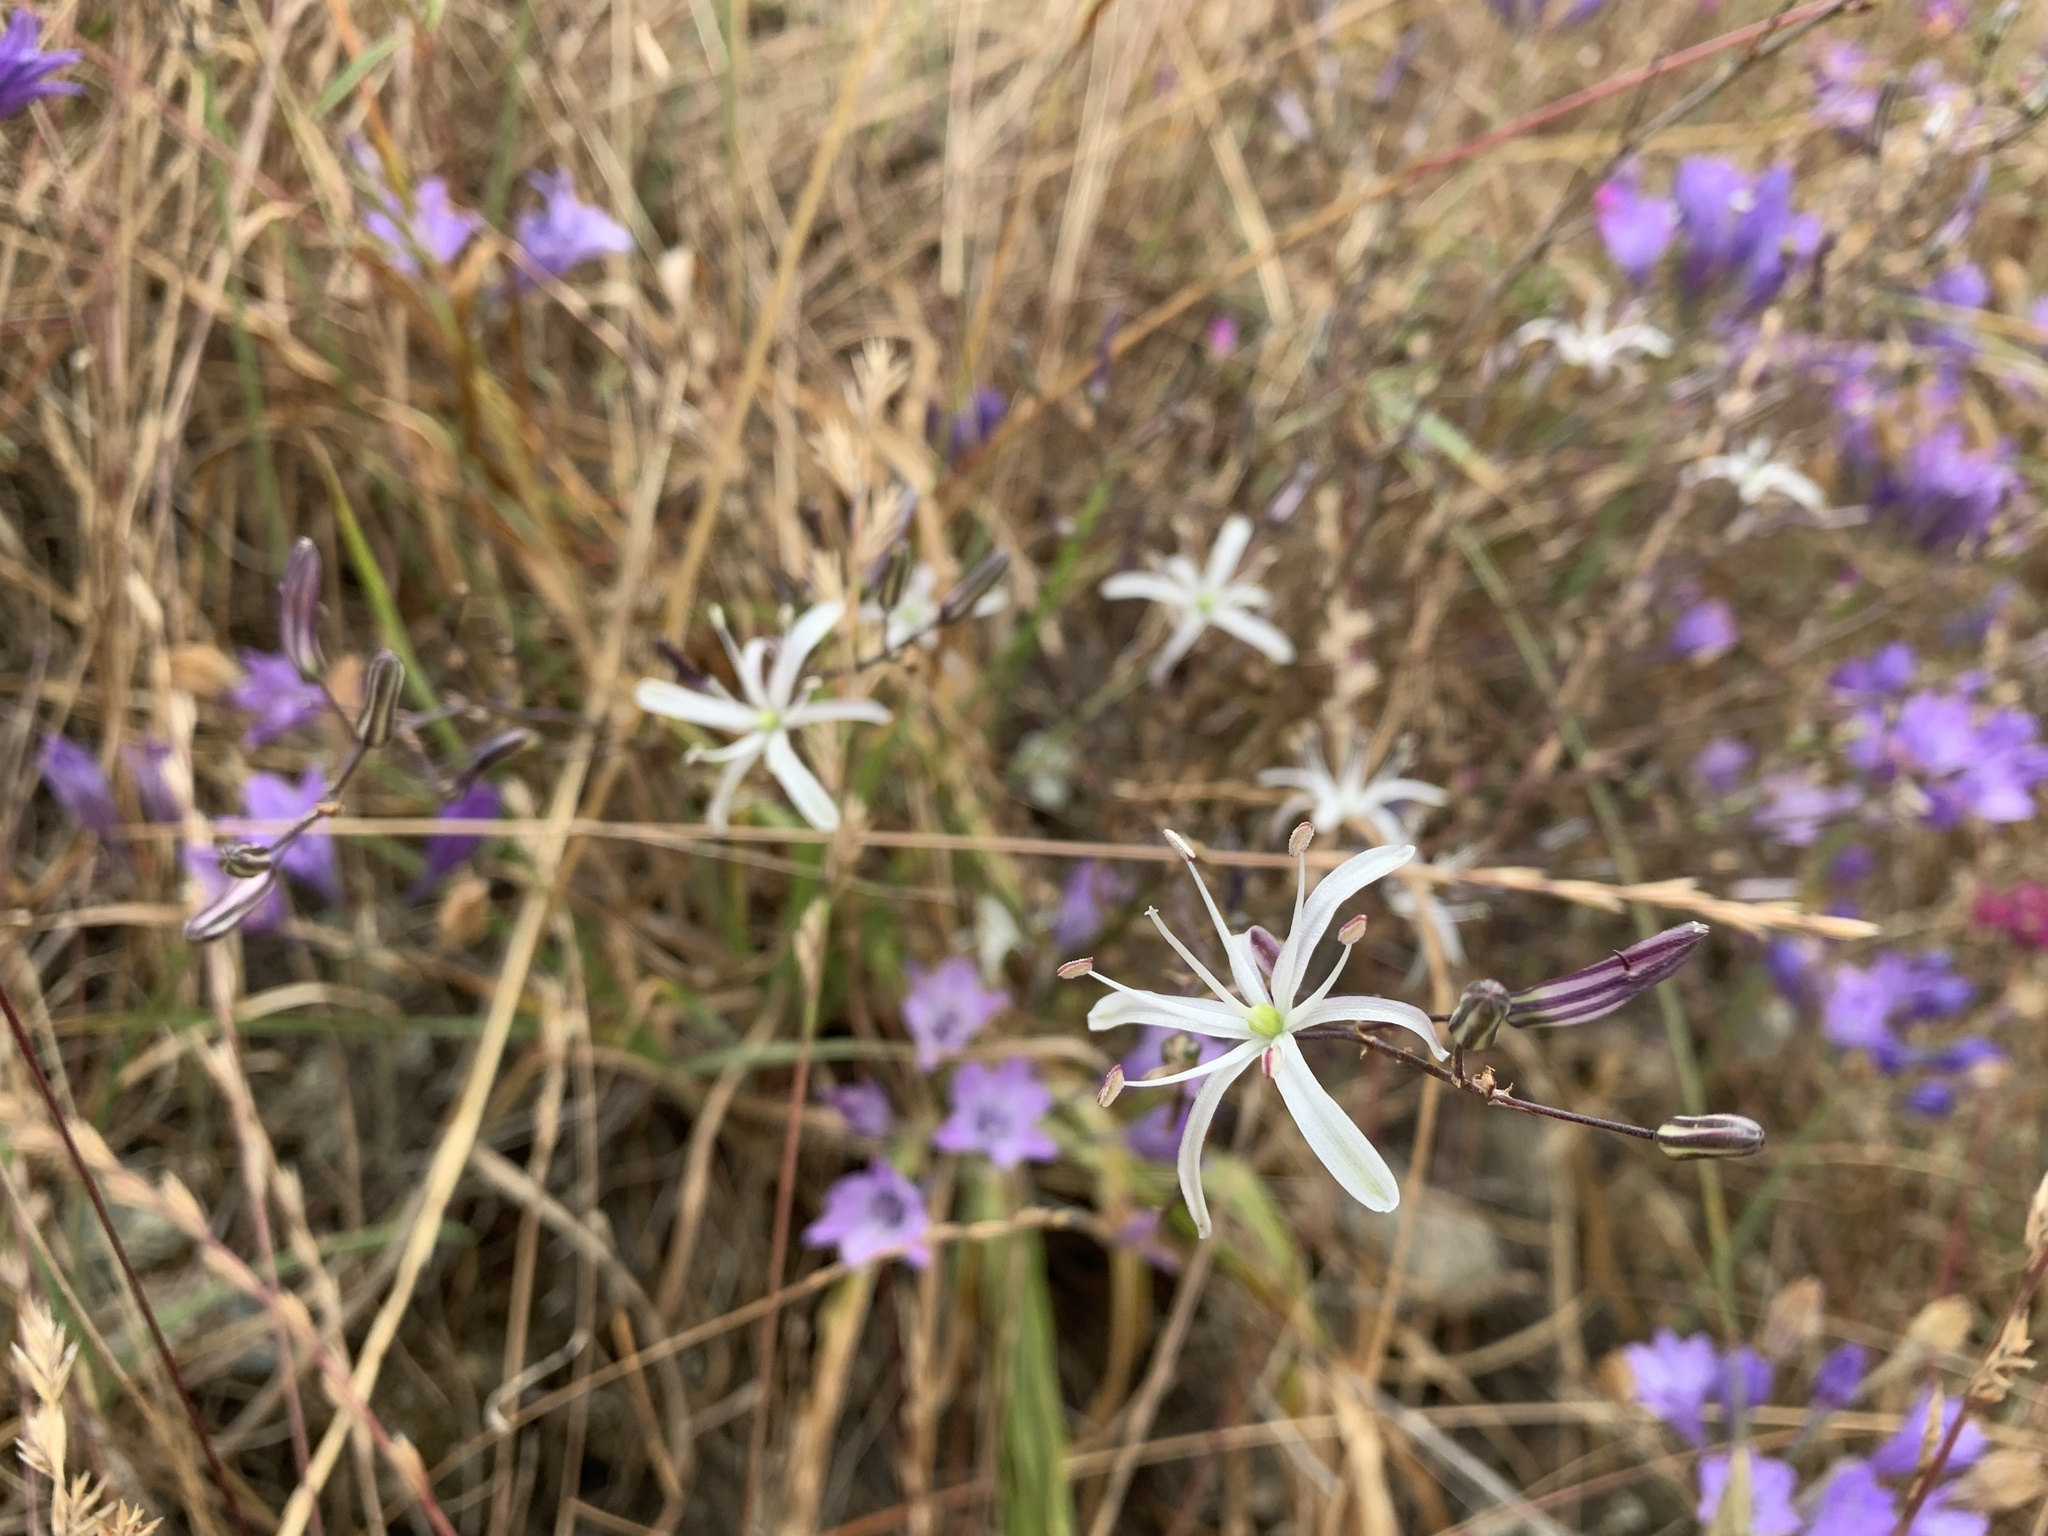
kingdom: Plantae
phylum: Tracheophyta
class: Liliopsida
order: Asparagales
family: Asparagaceae
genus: Chlorogalum
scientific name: Chlorogalum pomeridianum
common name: Amole
